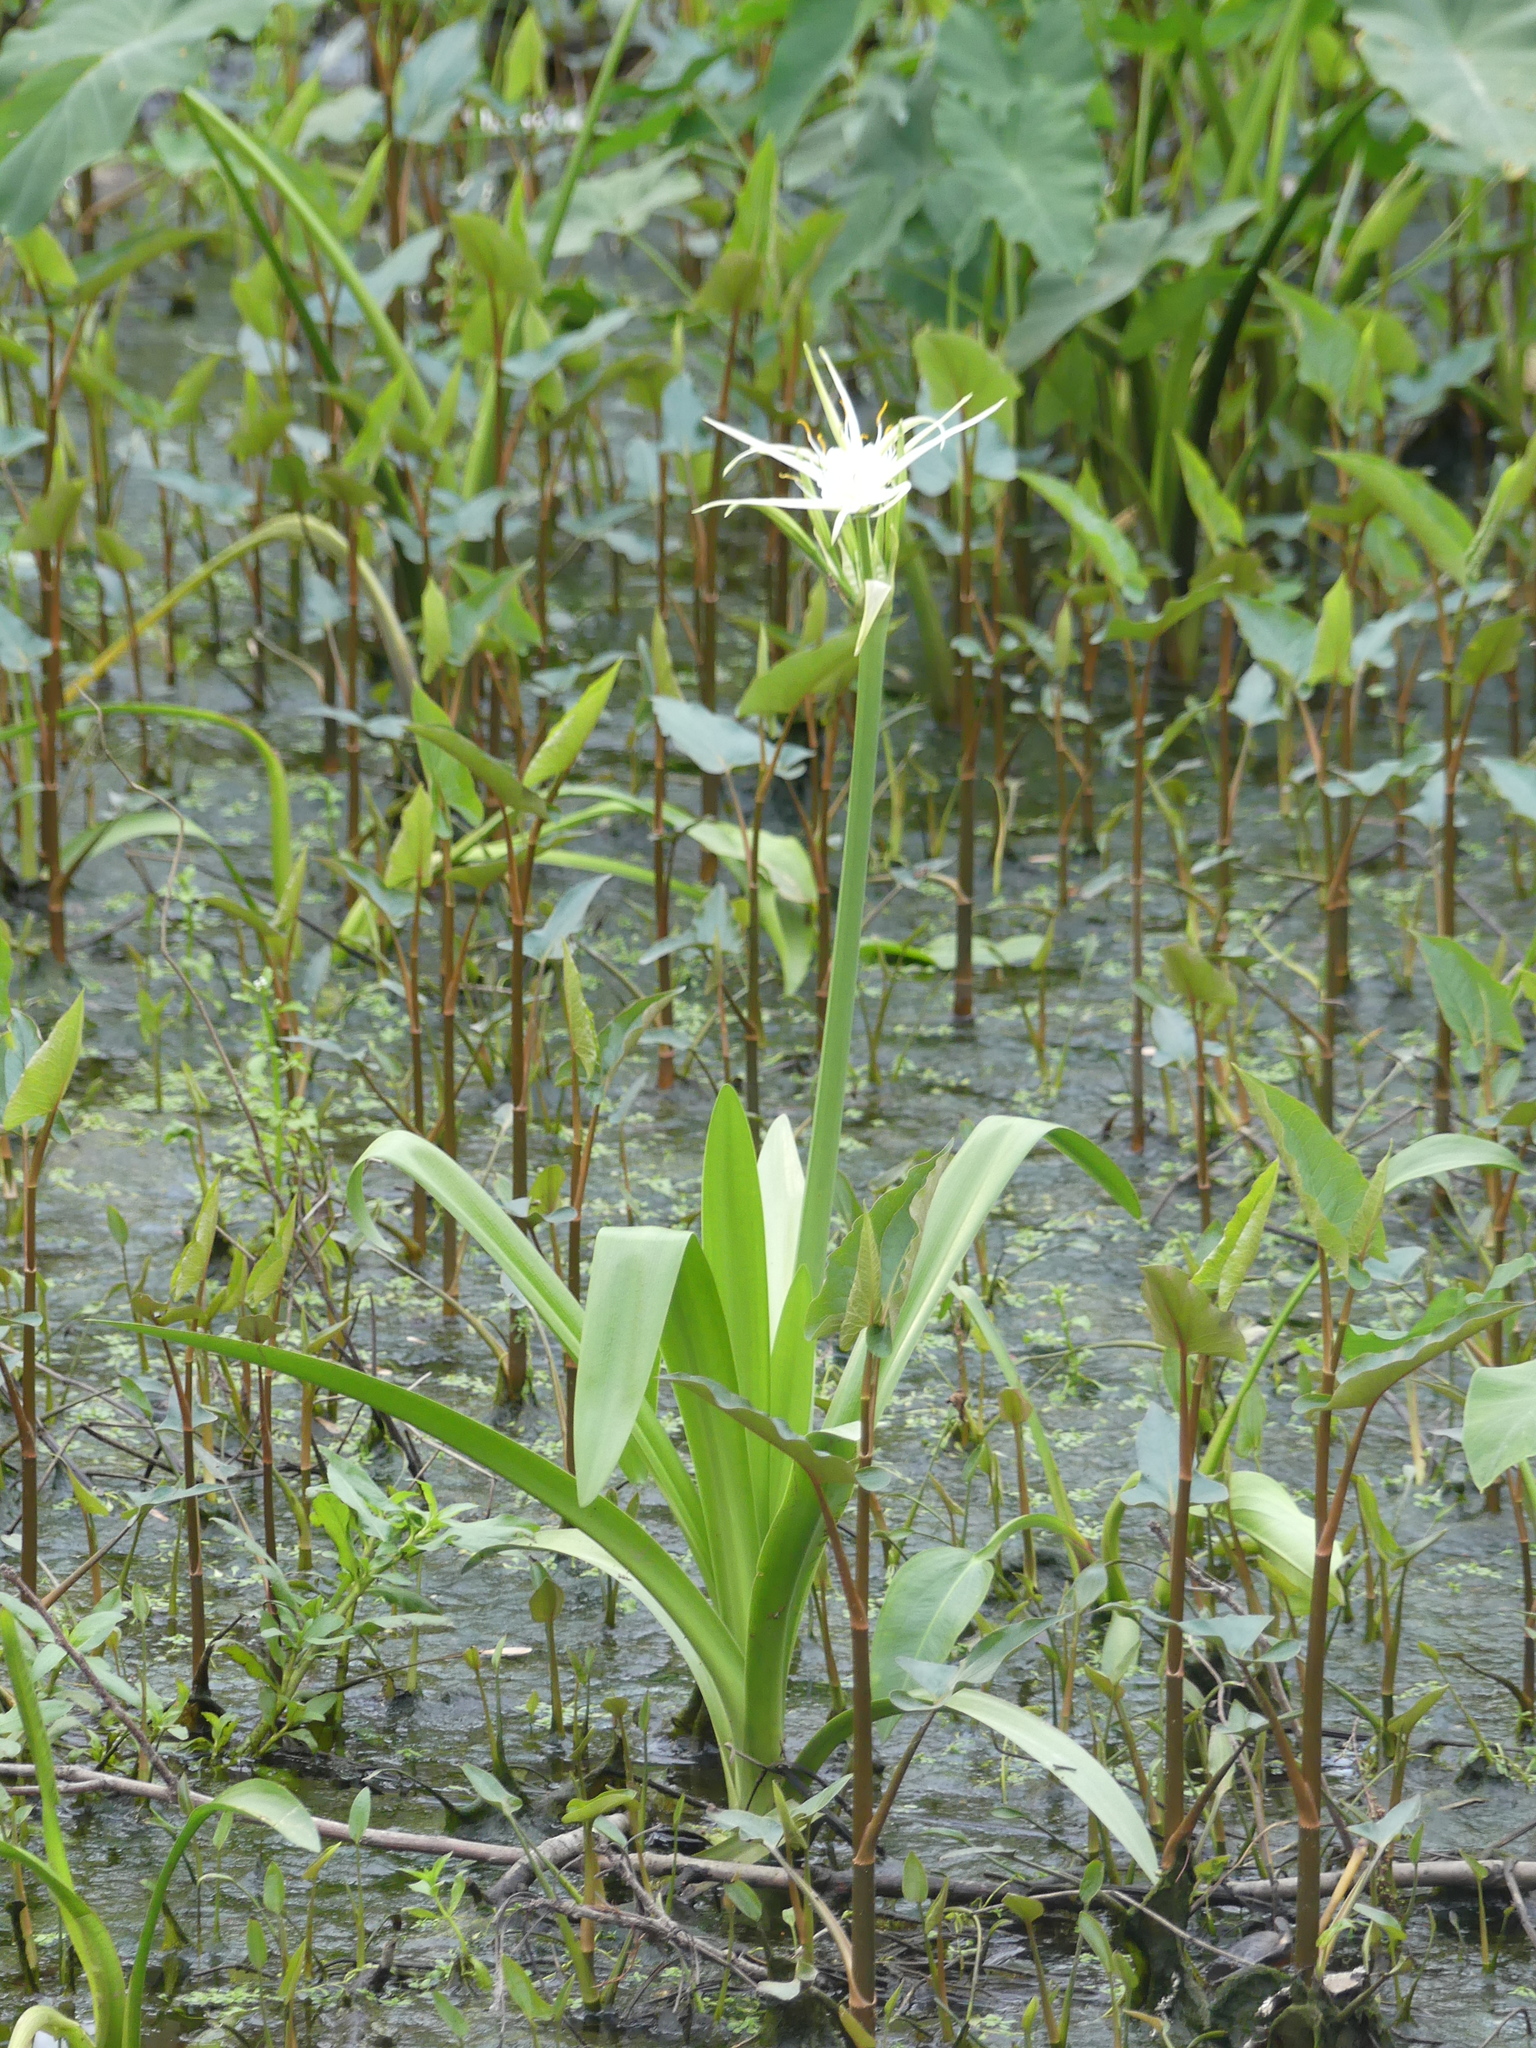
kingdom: Plantae
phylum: Tracheophyta
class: Liliopsida
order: Asparagales
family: Amaryllidaceae
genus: Hymenocallis
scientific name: Hymenocallis liriosme
